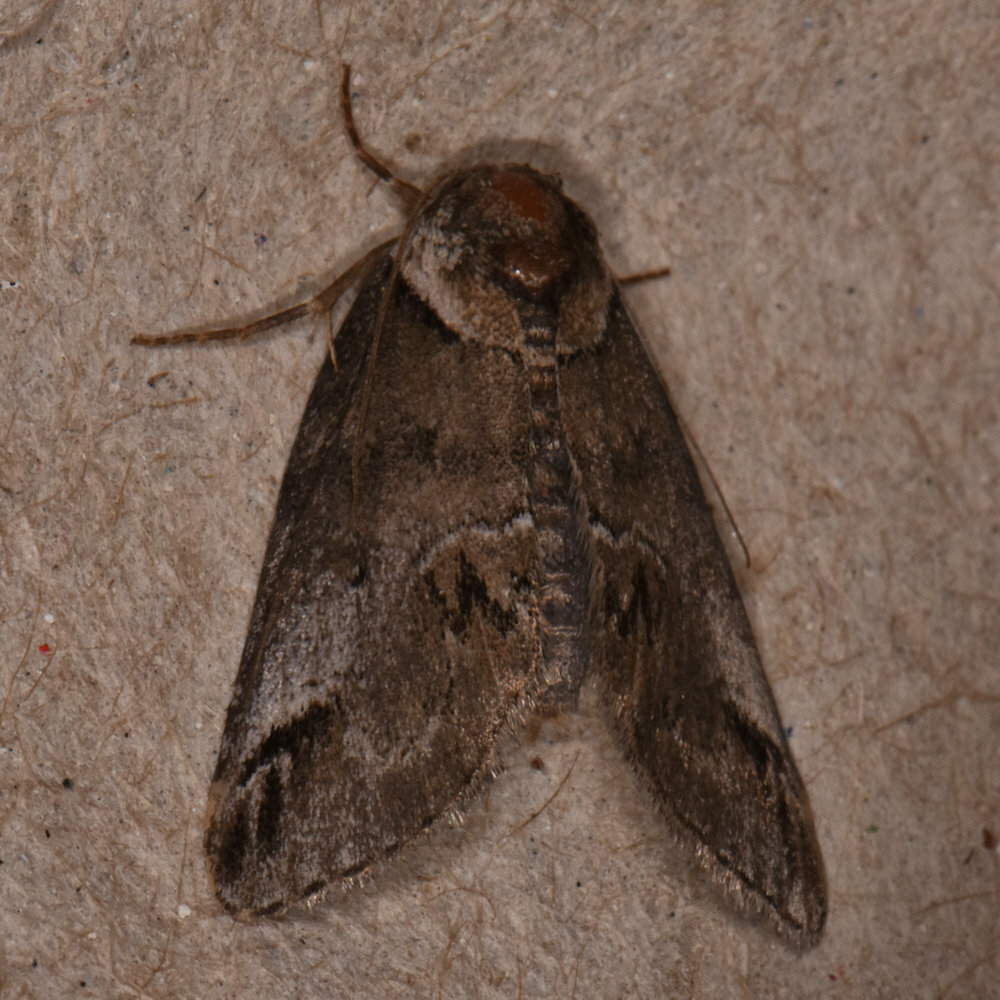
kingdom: Animalia
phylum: Arthropoda
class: Insecta
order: Lepidoptera
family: Nolidae
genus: Baileya
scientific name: Baileya australis
